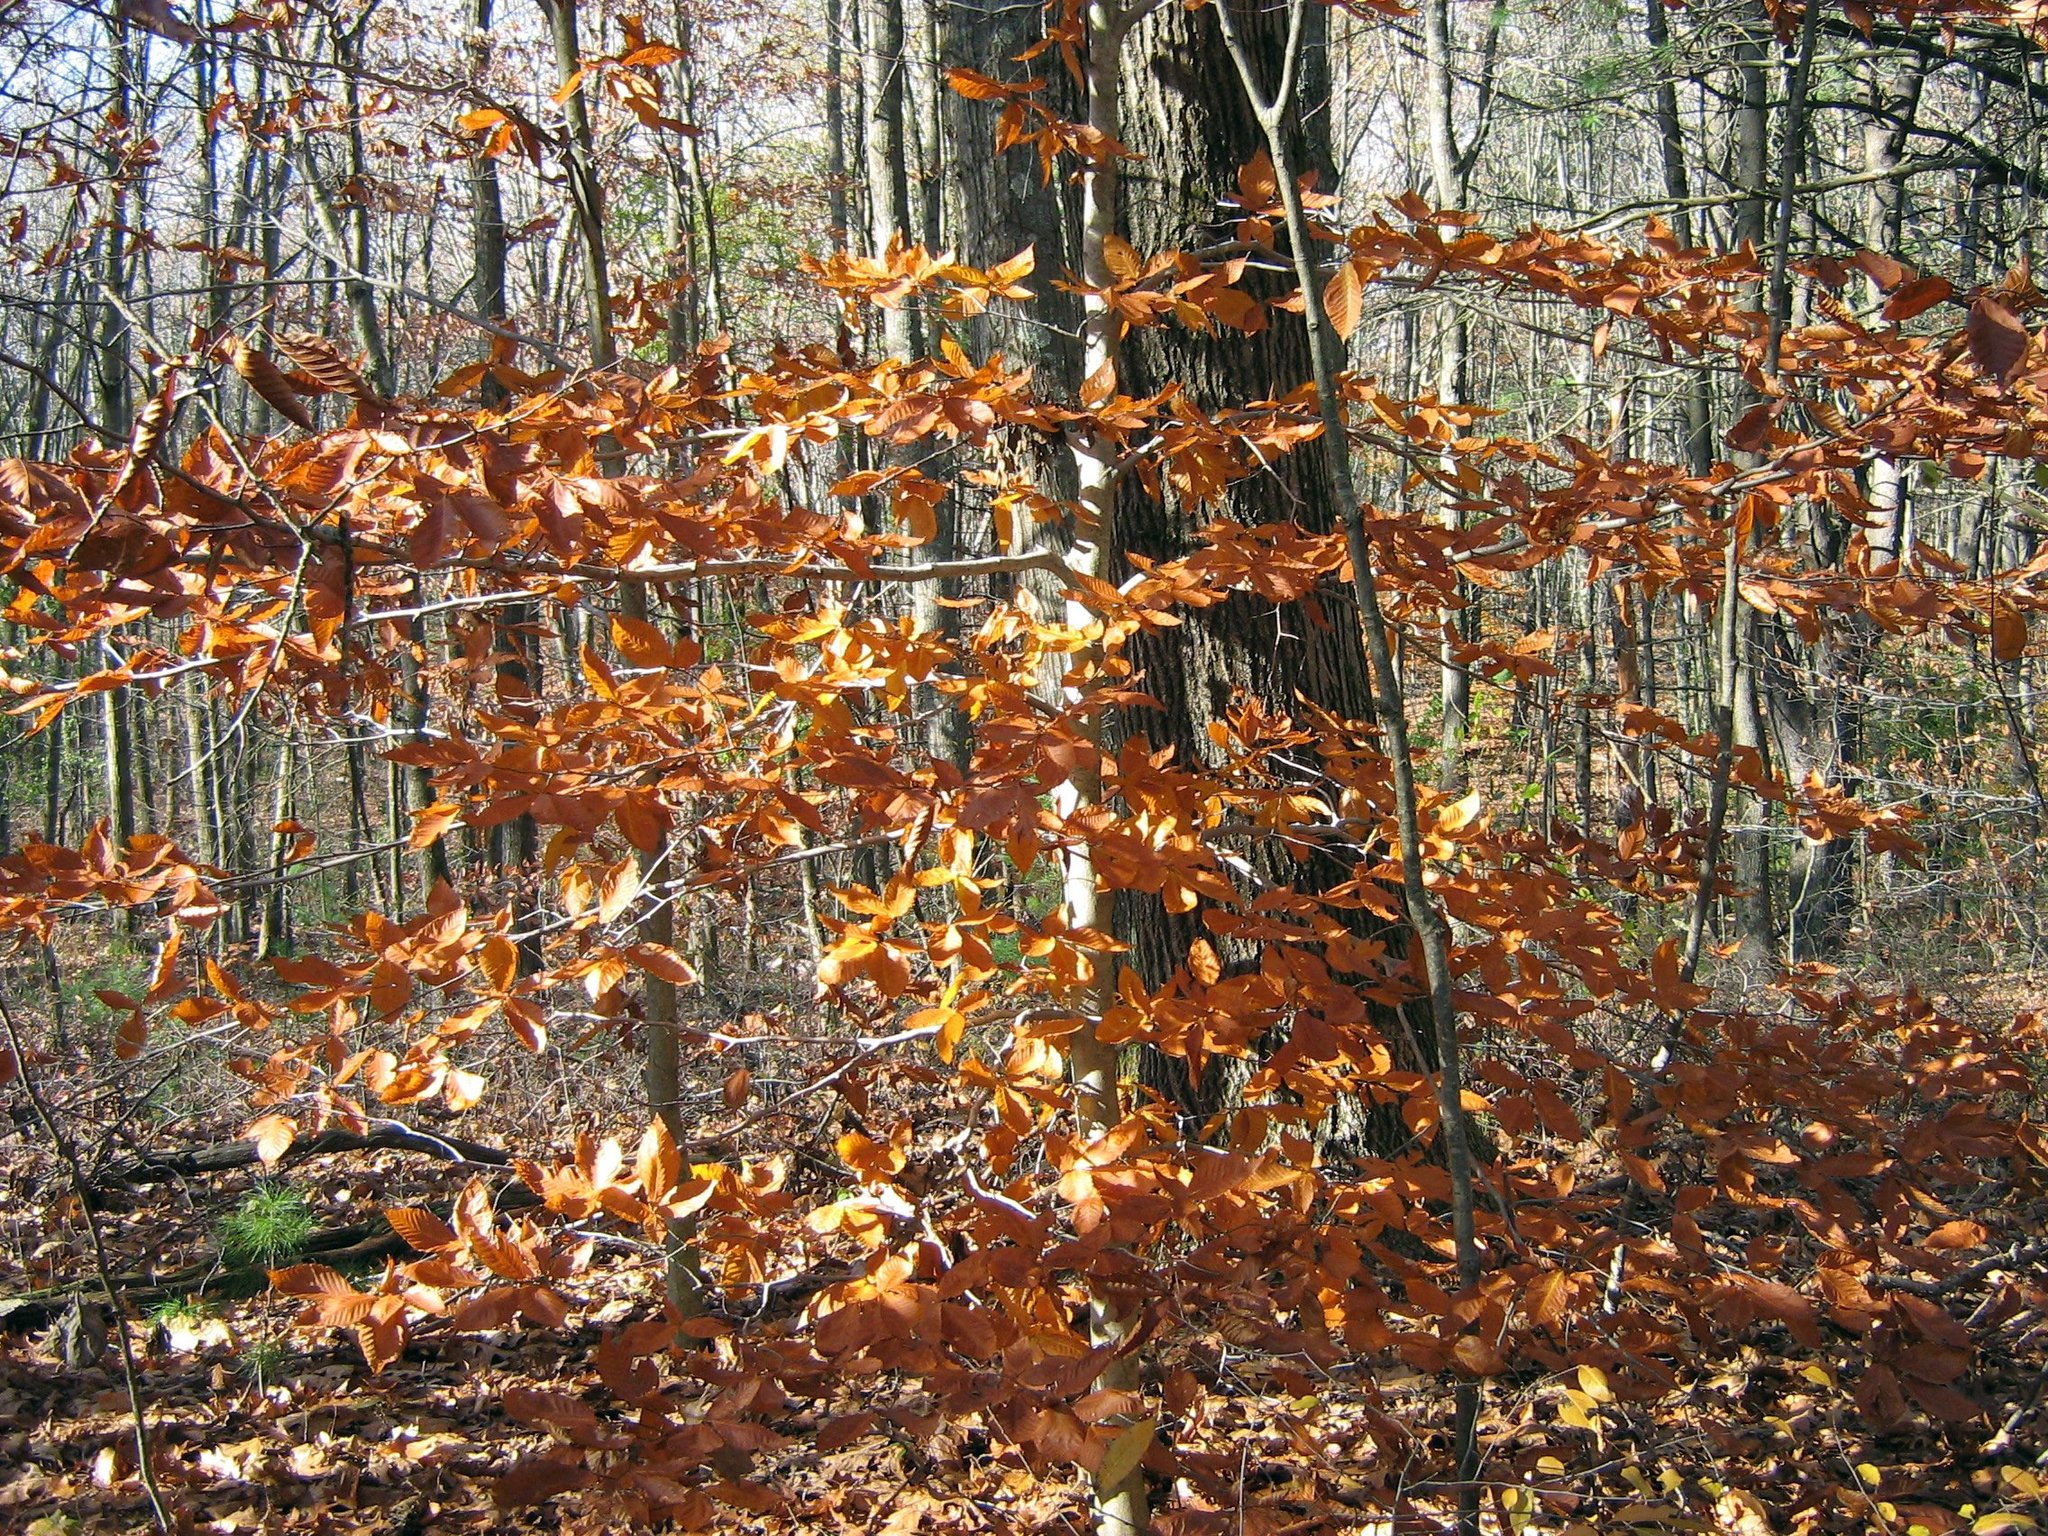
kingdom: Plantae
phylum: Tracheophyta
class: Magnoliopsida
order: Fagales
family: Fagaceae
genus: Fagus
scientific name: Fagus grandifolia
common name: American beech
